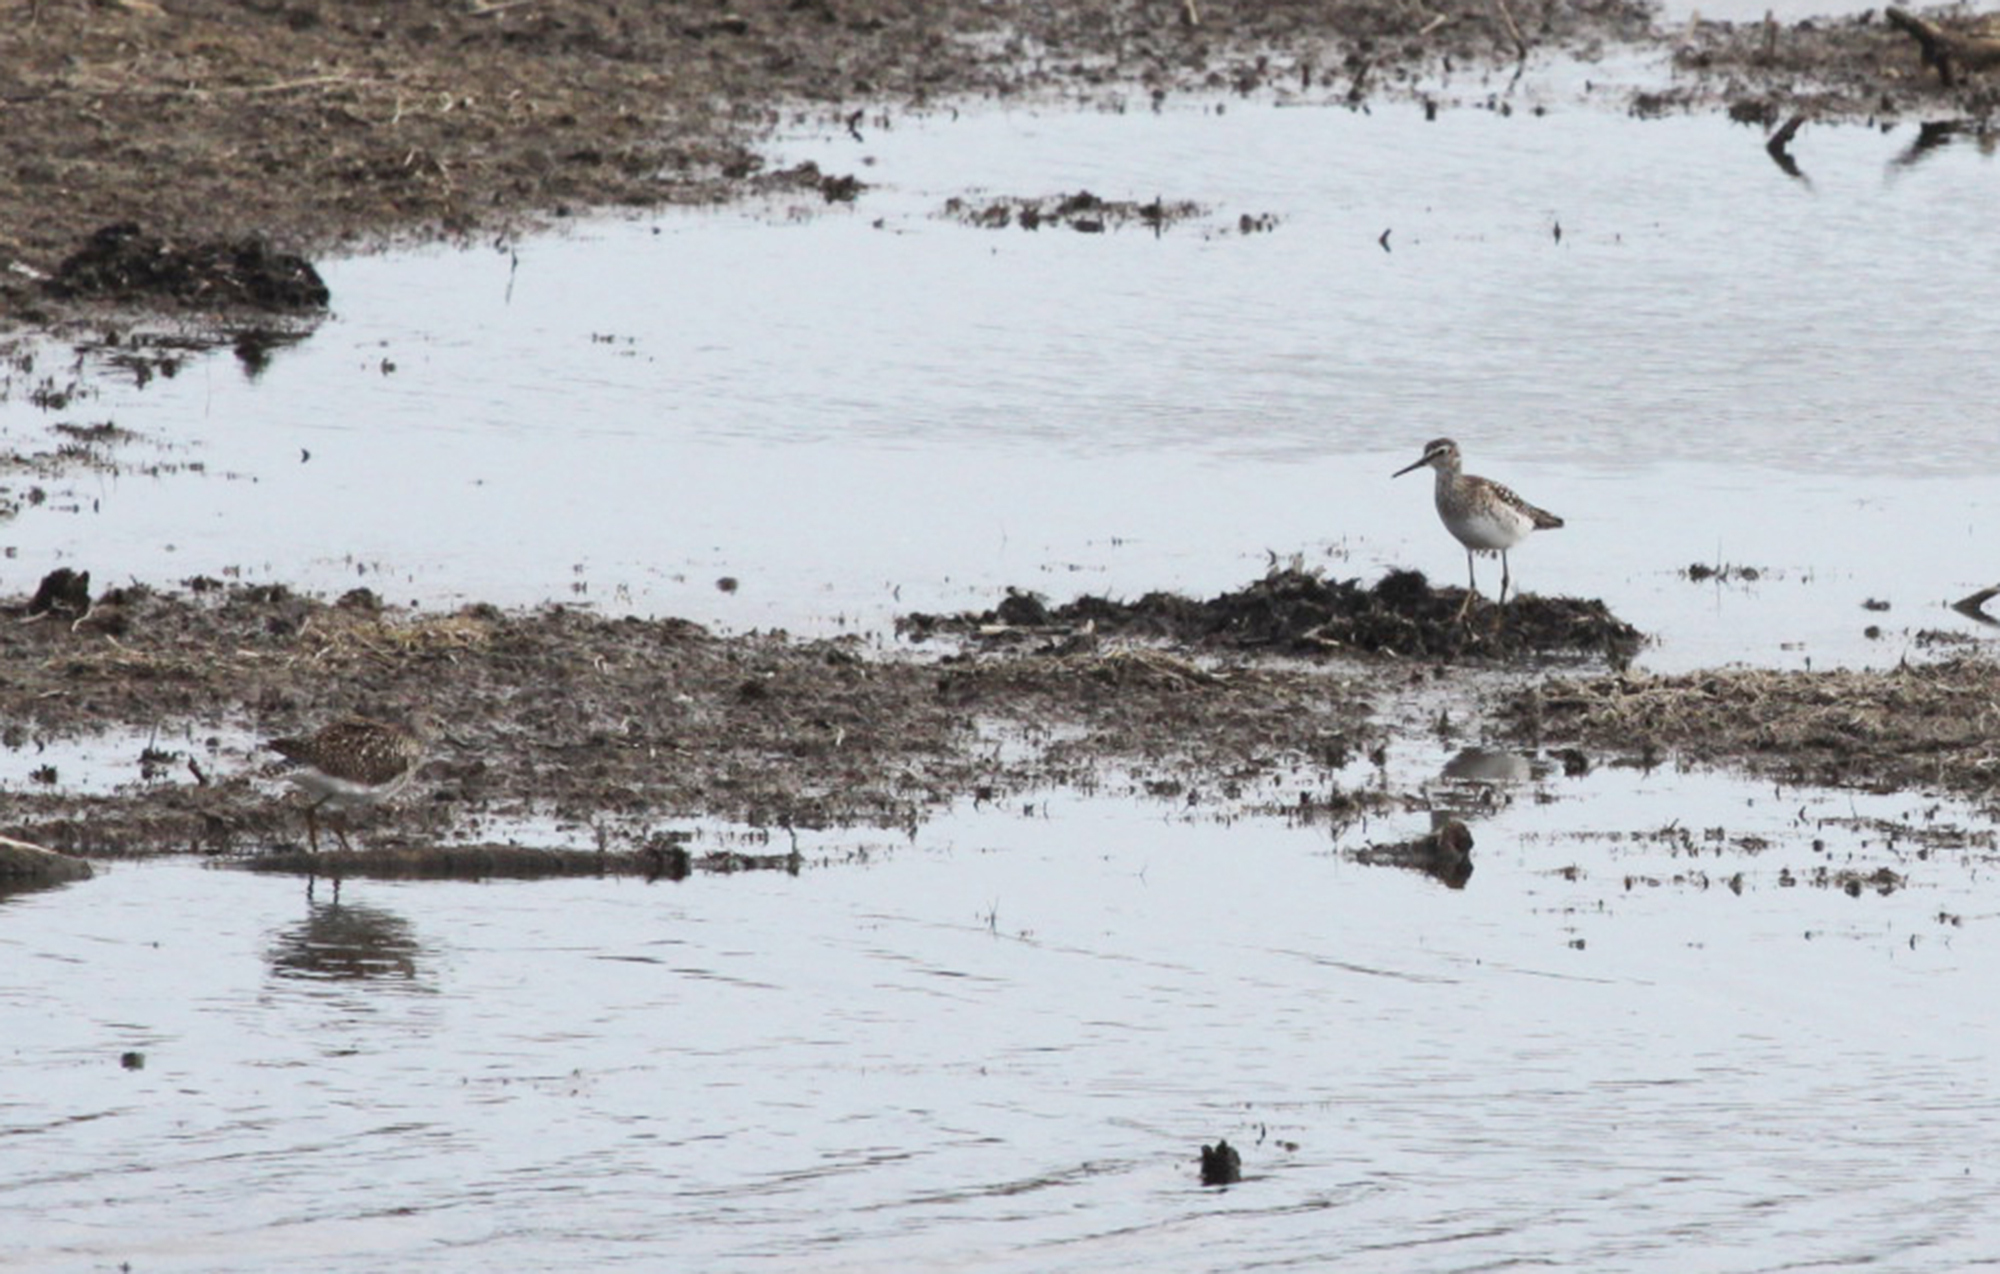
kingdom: Animalia
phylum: Chordata
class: Aves
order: Charadriiformes
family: Scolopacidae
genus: Tringa
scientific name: Tringa glareola
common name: Wood sandpiper
